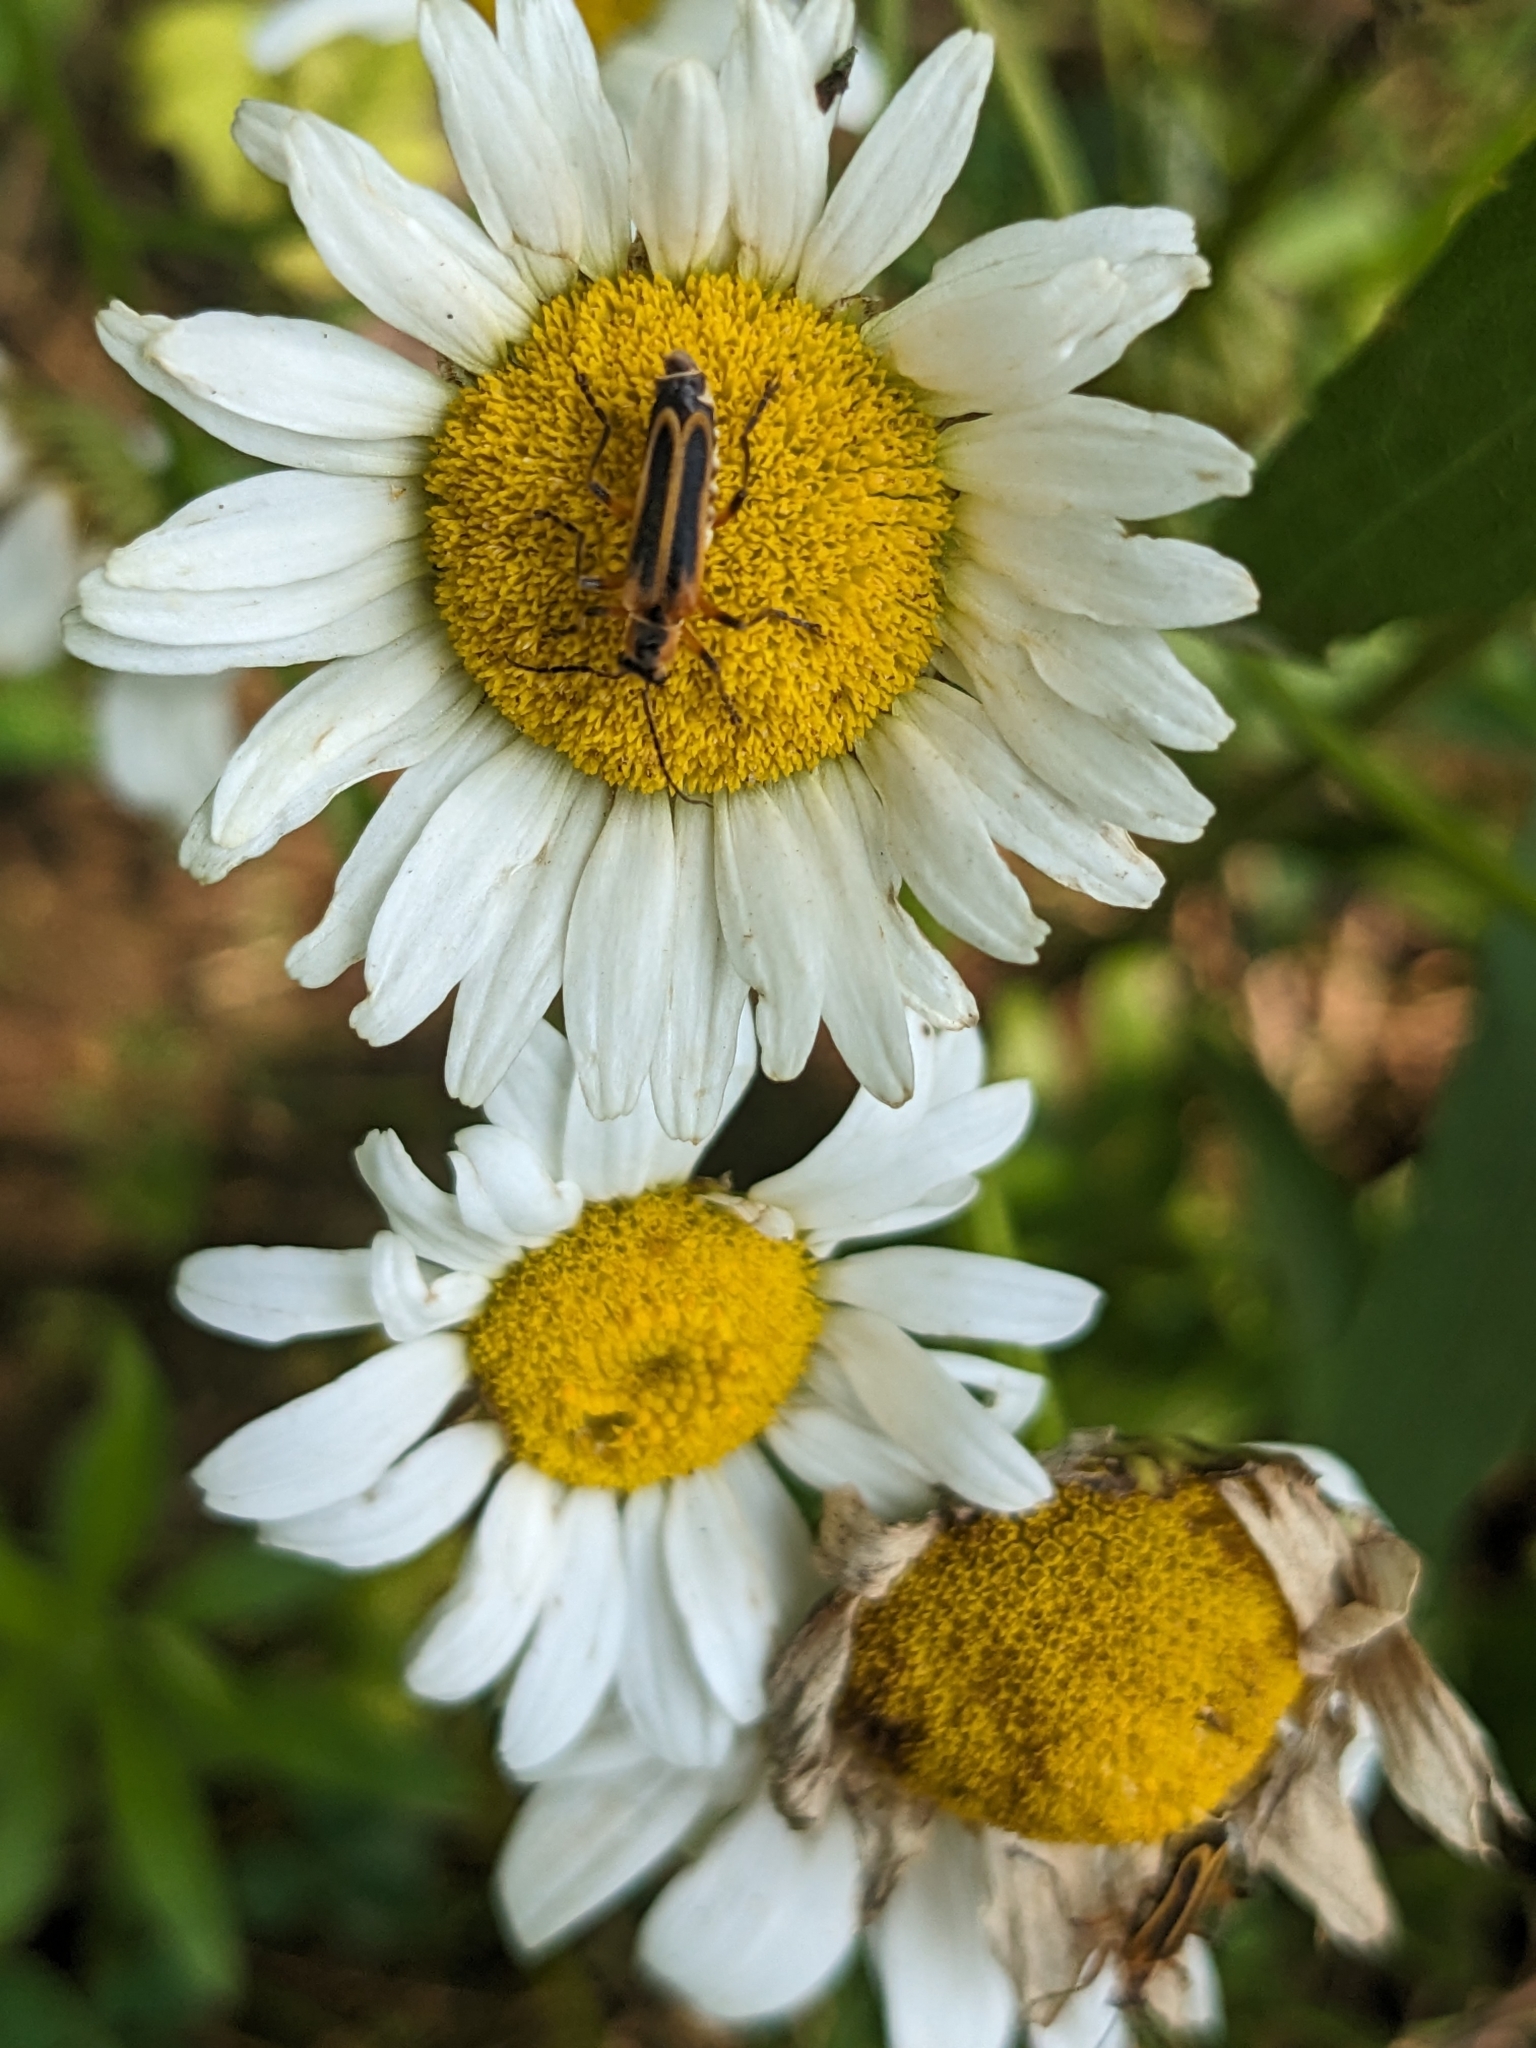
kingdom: Animalia
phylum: Arthropoda
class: Insecta
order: Coleoptera
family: Cantharidae
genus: Chauliognathus
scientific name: Chauliognathus marginatus
